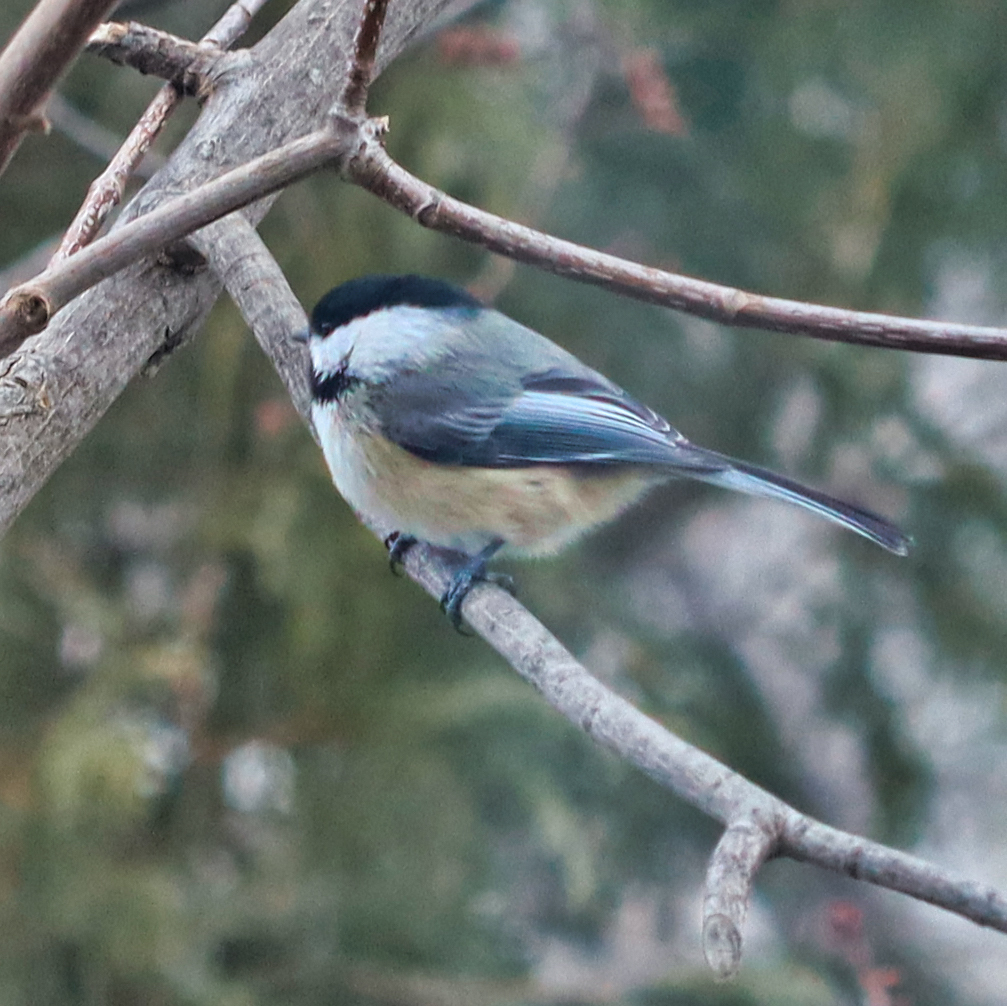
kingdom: Animalia
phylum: Chordata
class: Aves
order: Passeriformes
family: Paridae
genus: Poecile
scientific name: Poecile atricapillus
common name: Black-capped chickadee
